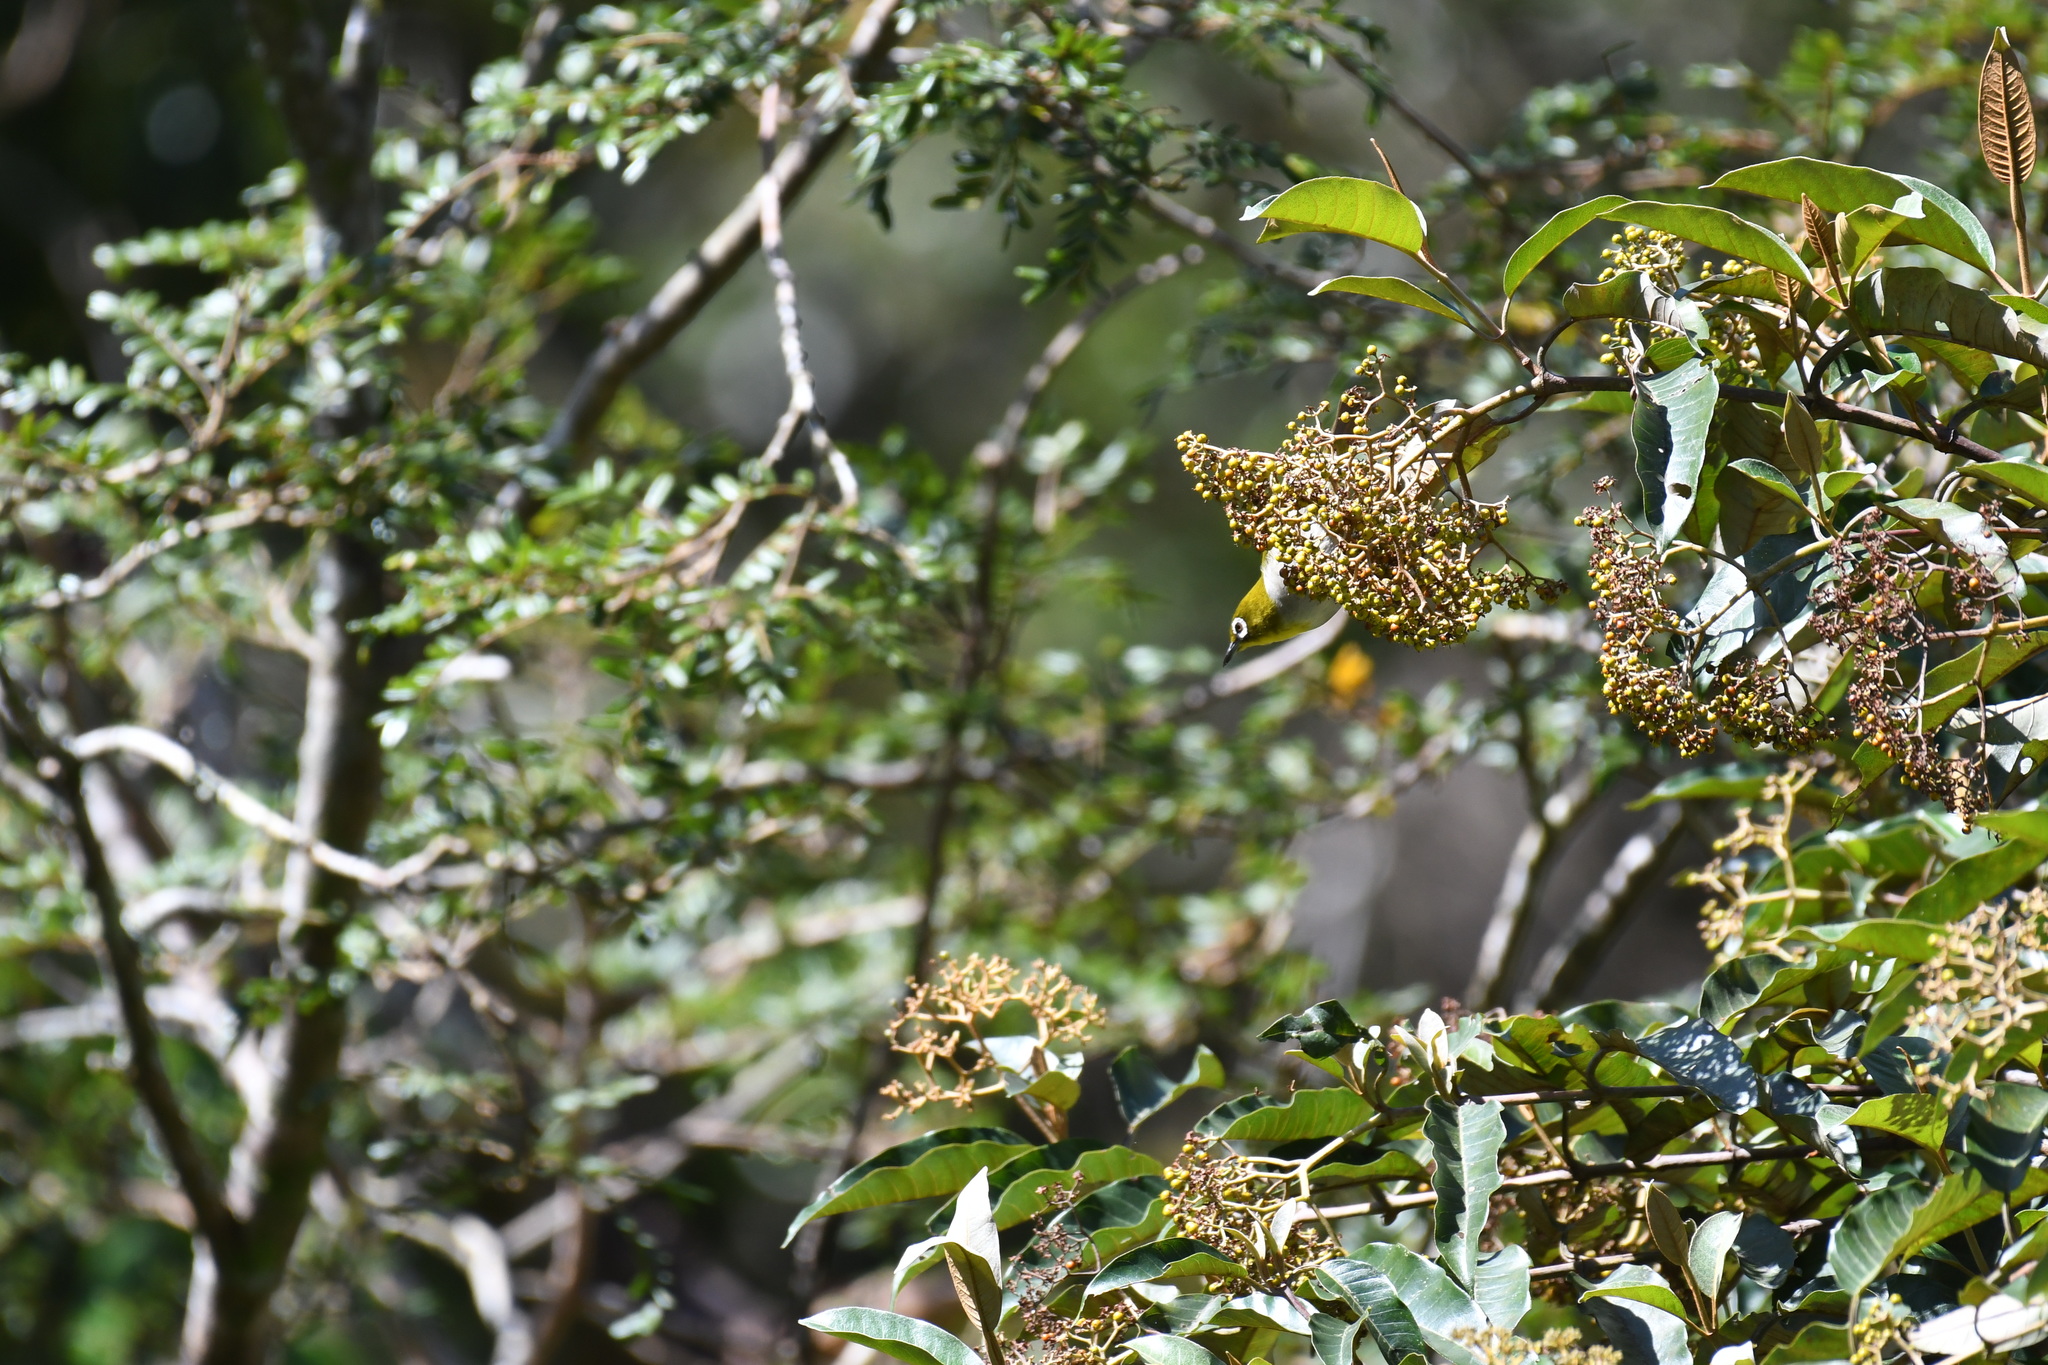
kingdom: Animalia
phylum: Chordata
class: Aves
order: Passeriformes
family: Zosteropidae
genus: Zosterops
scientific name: Zosterops maderaspatanus
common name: Madagascar white-eye
